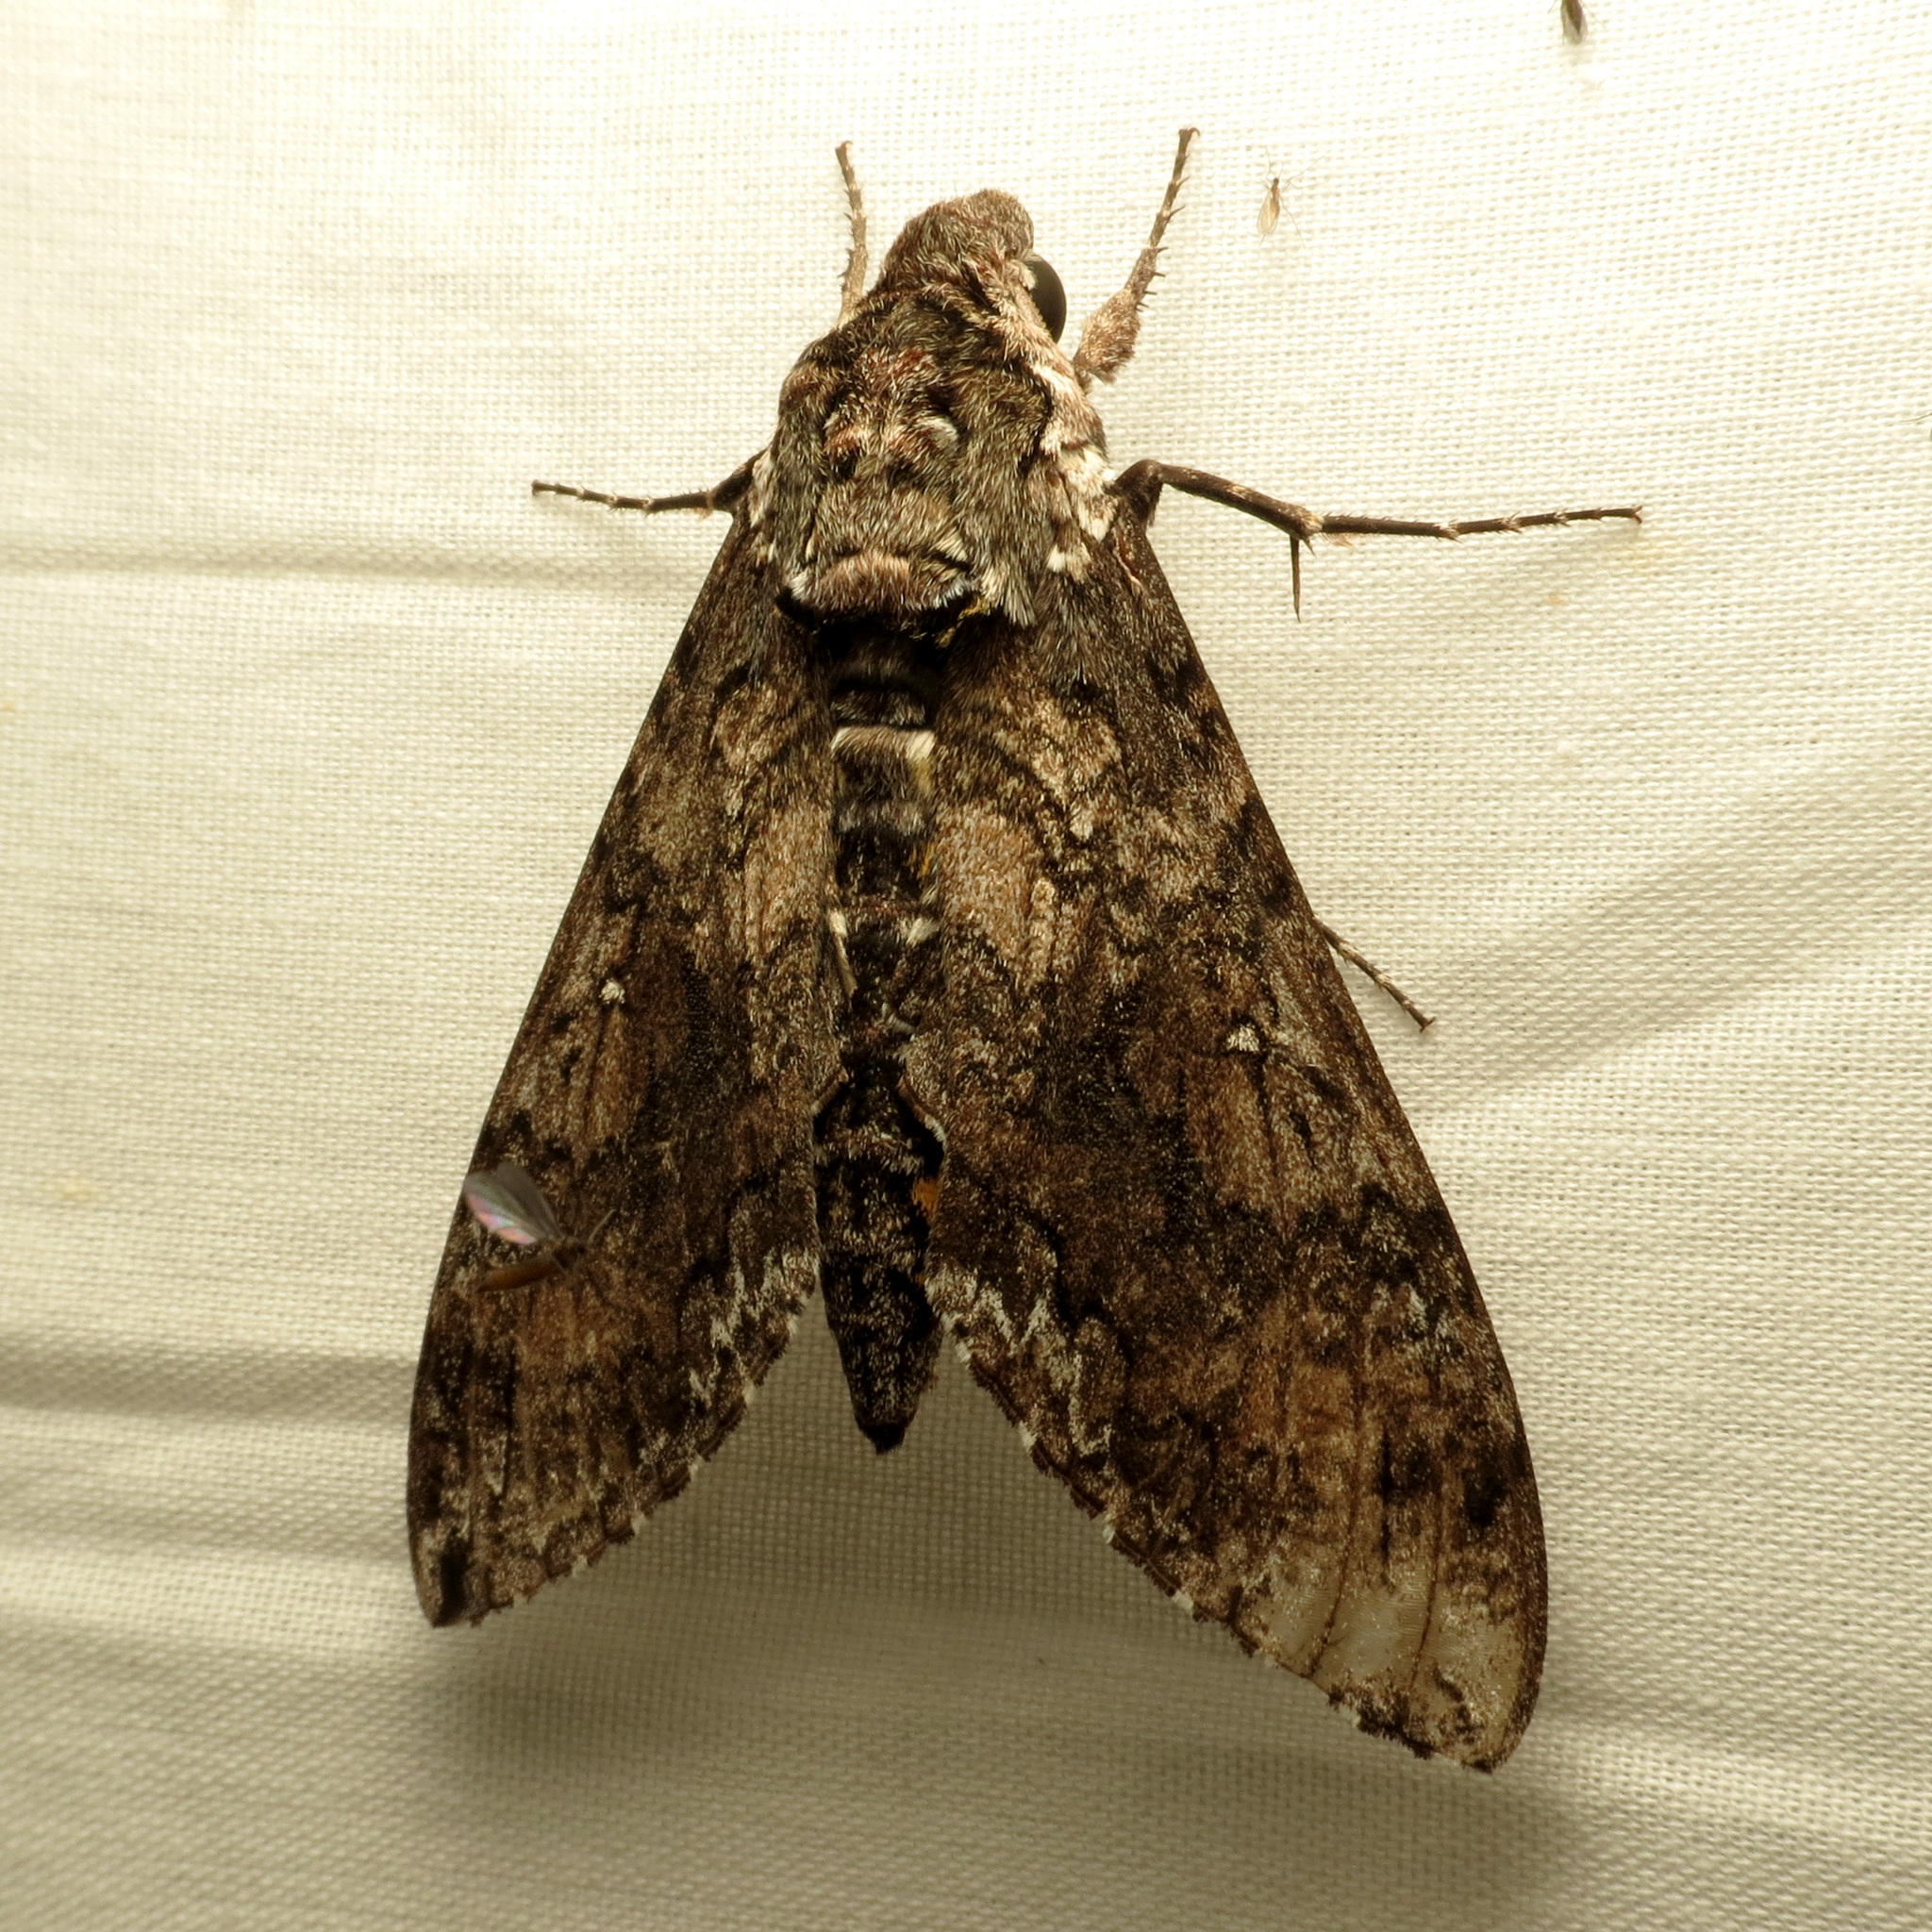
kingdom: Animalia
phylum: Arthropoda
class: Insecta
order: Lepidoptera
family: Sphingidae
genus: Manduca
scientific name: Manduca sexta
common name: Carolina sphinx
